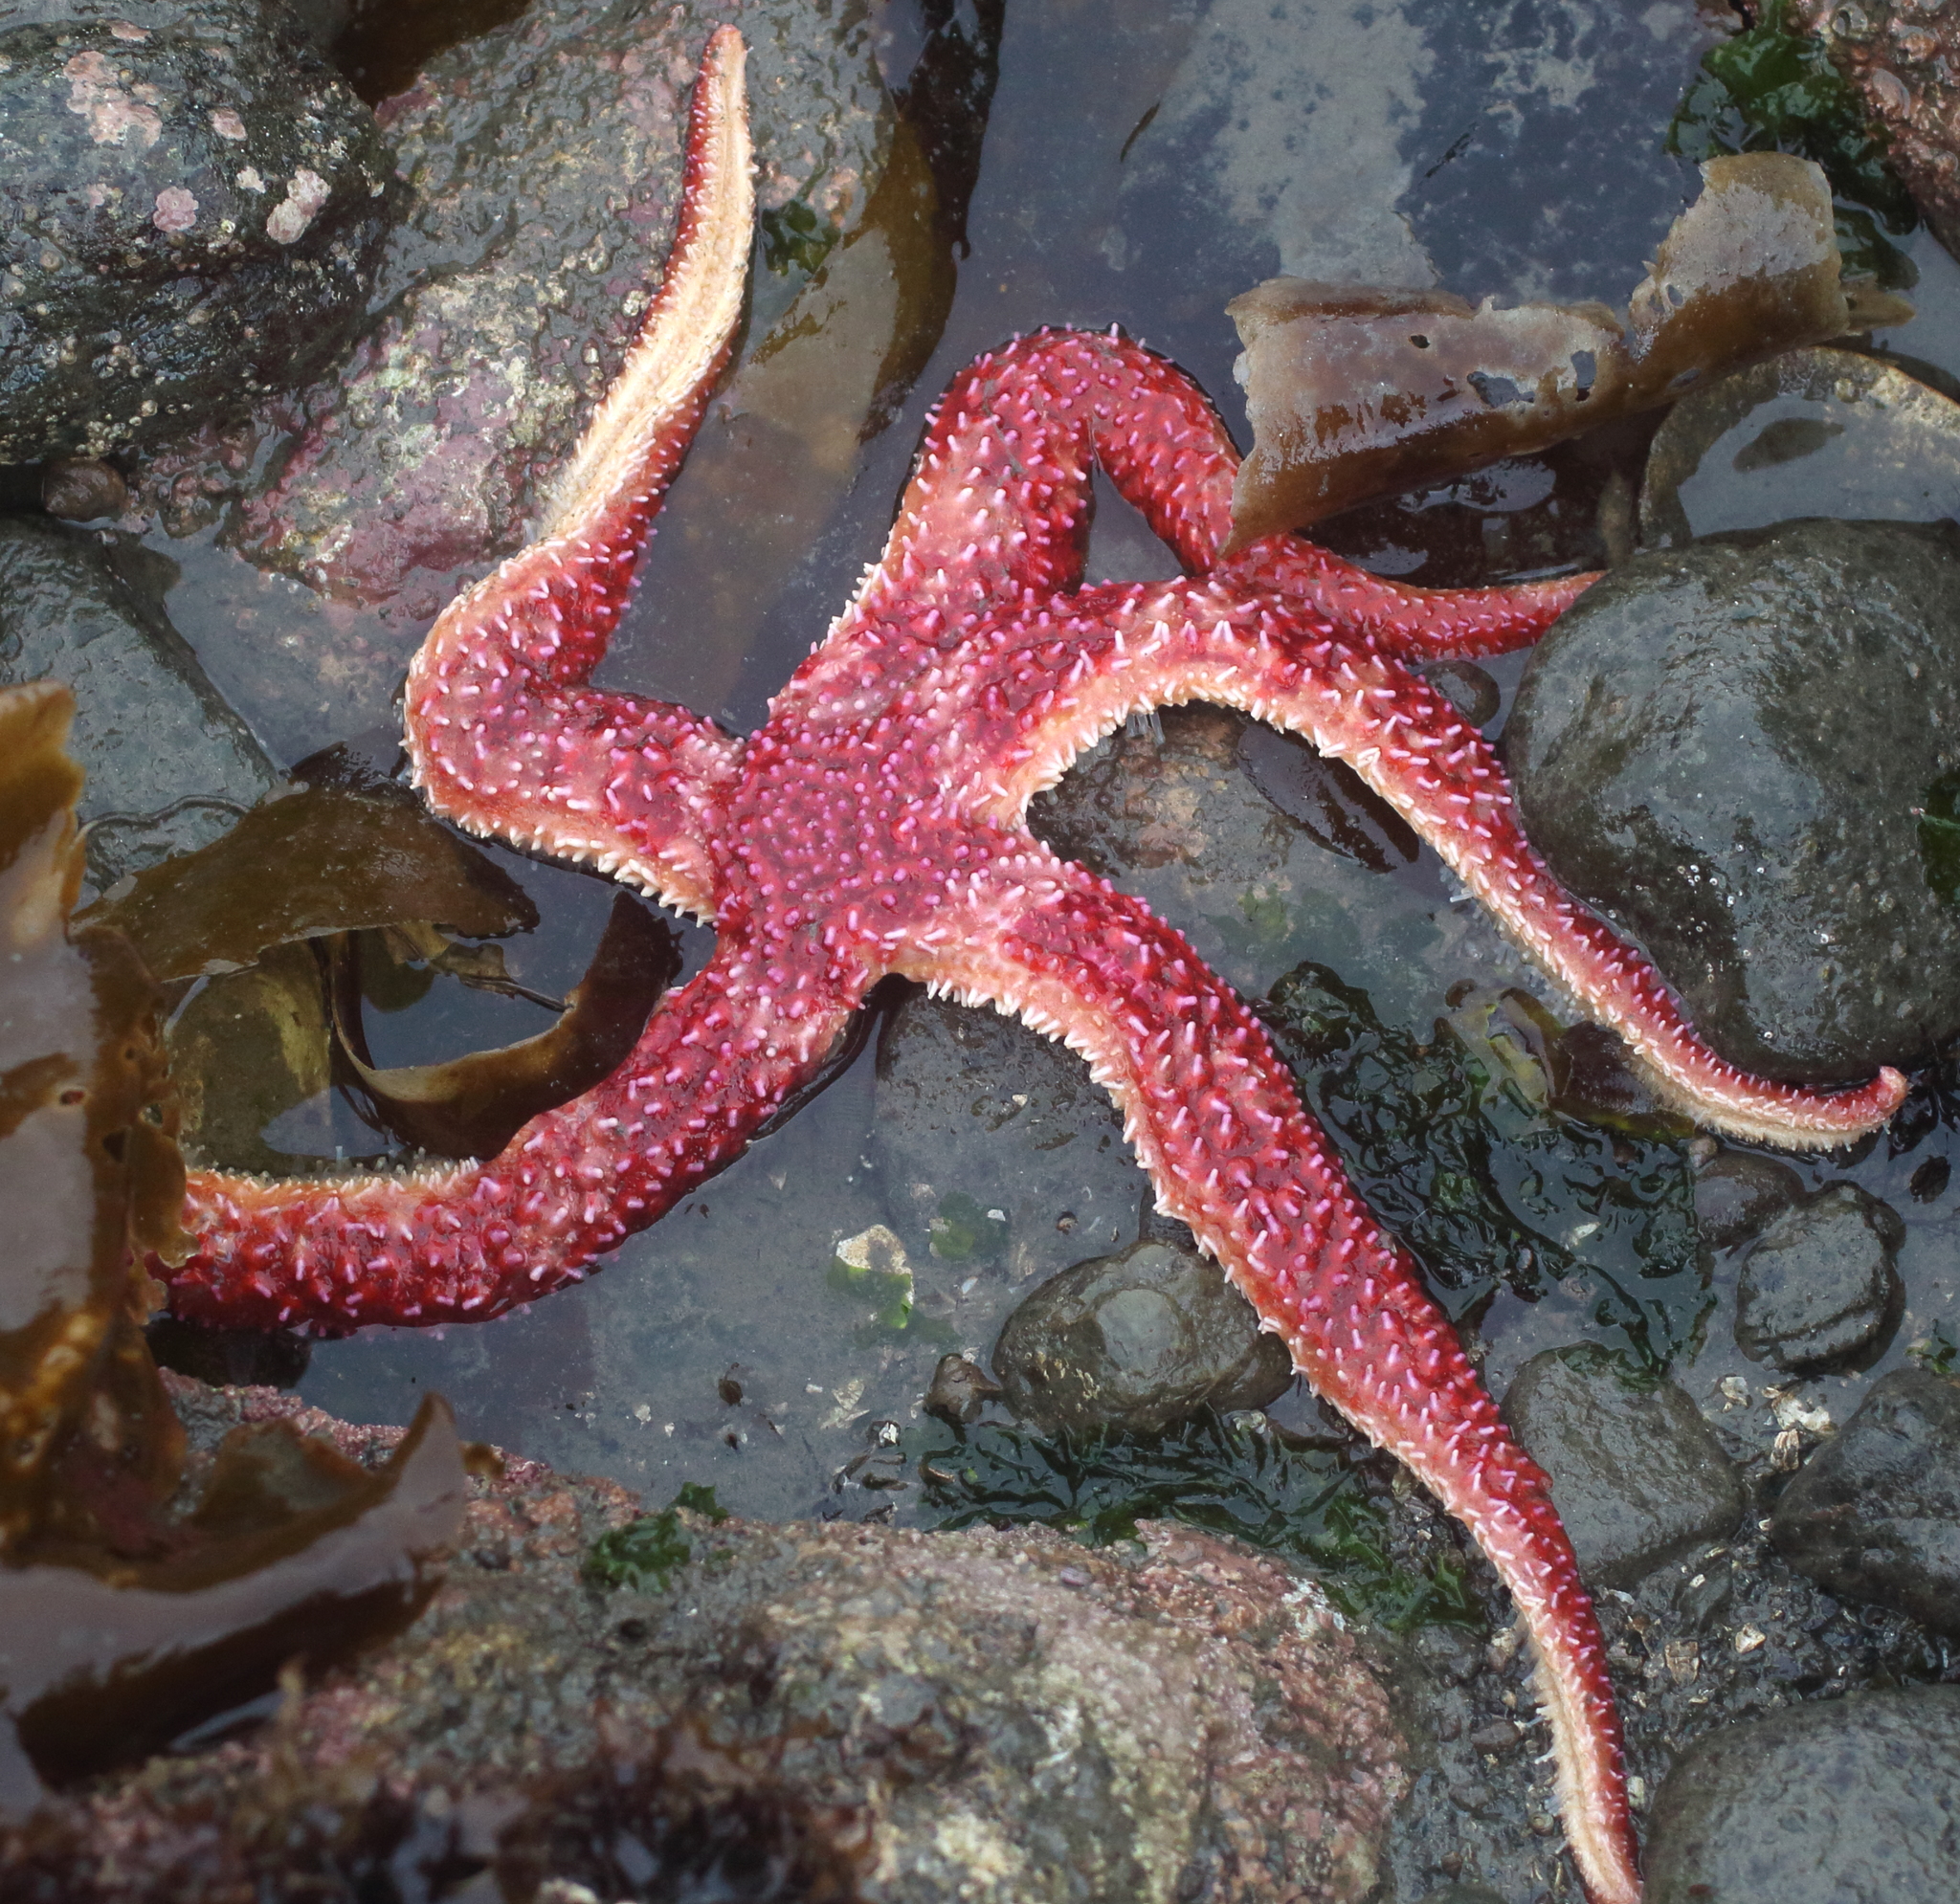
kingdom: Animalia
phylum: Echinodermata
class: Asteroidea
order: Forcipulatida
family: Asteriidae
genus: Orthasterias
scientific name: Orthasterias koehleri
